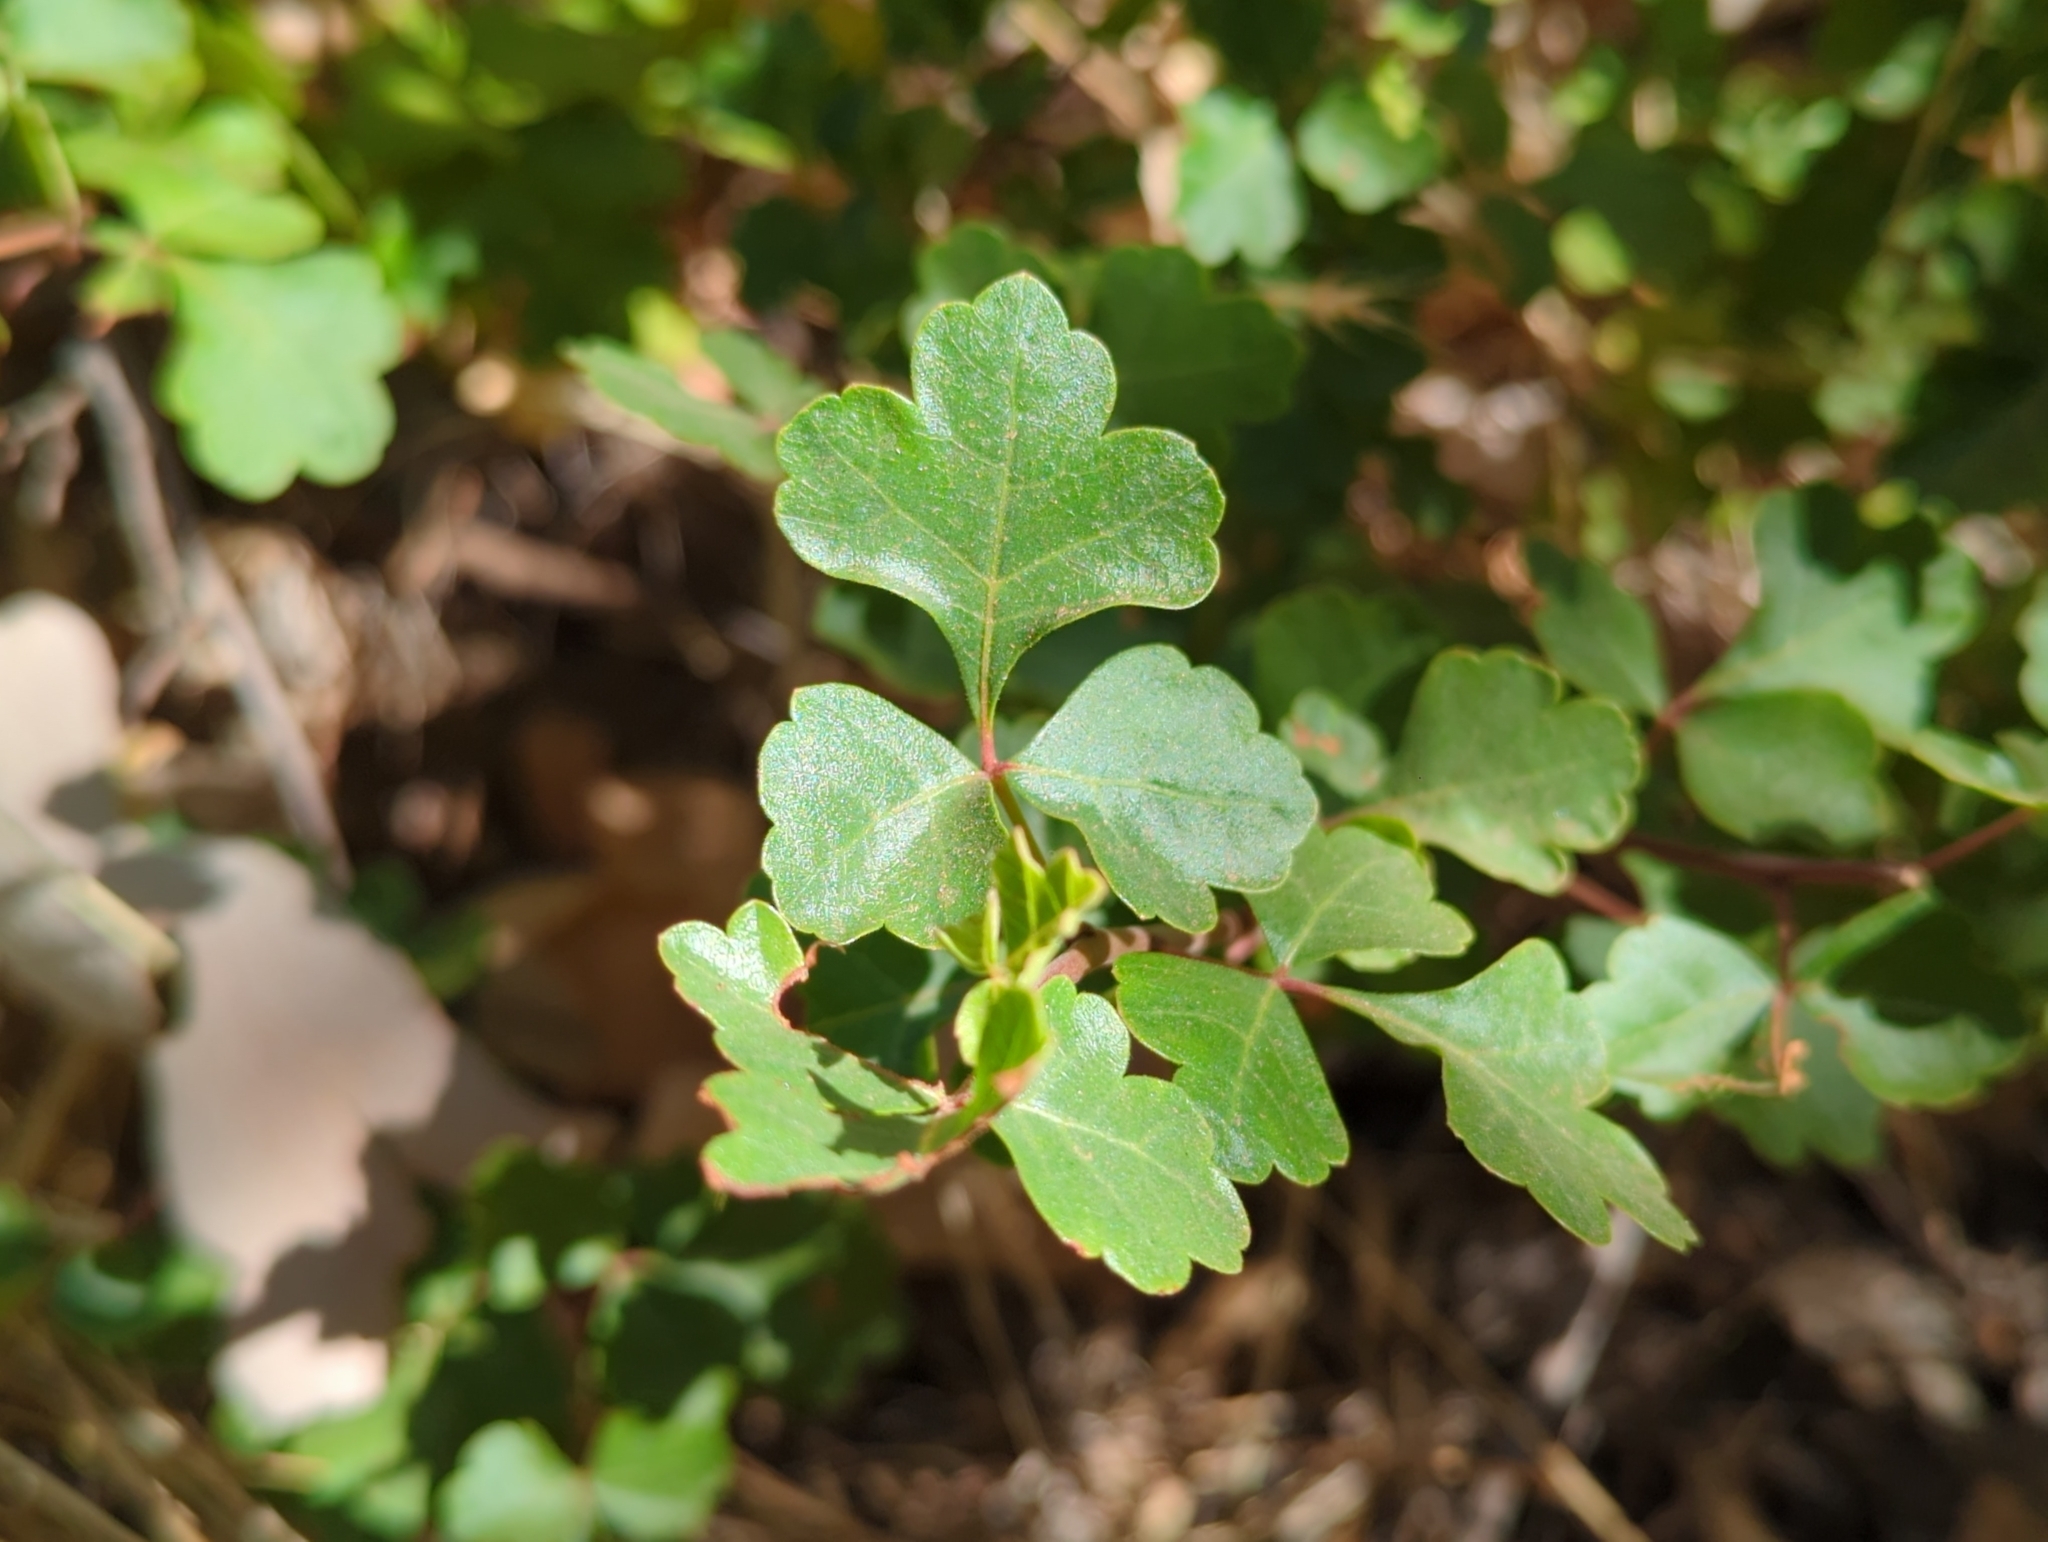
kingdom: Plantae
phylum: Tracheophyta
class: Magnoliopsida
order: Sapindales
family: Anacardiaceae
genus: Rhus
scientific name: Rhus aromatica
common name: Aromatic sumac
